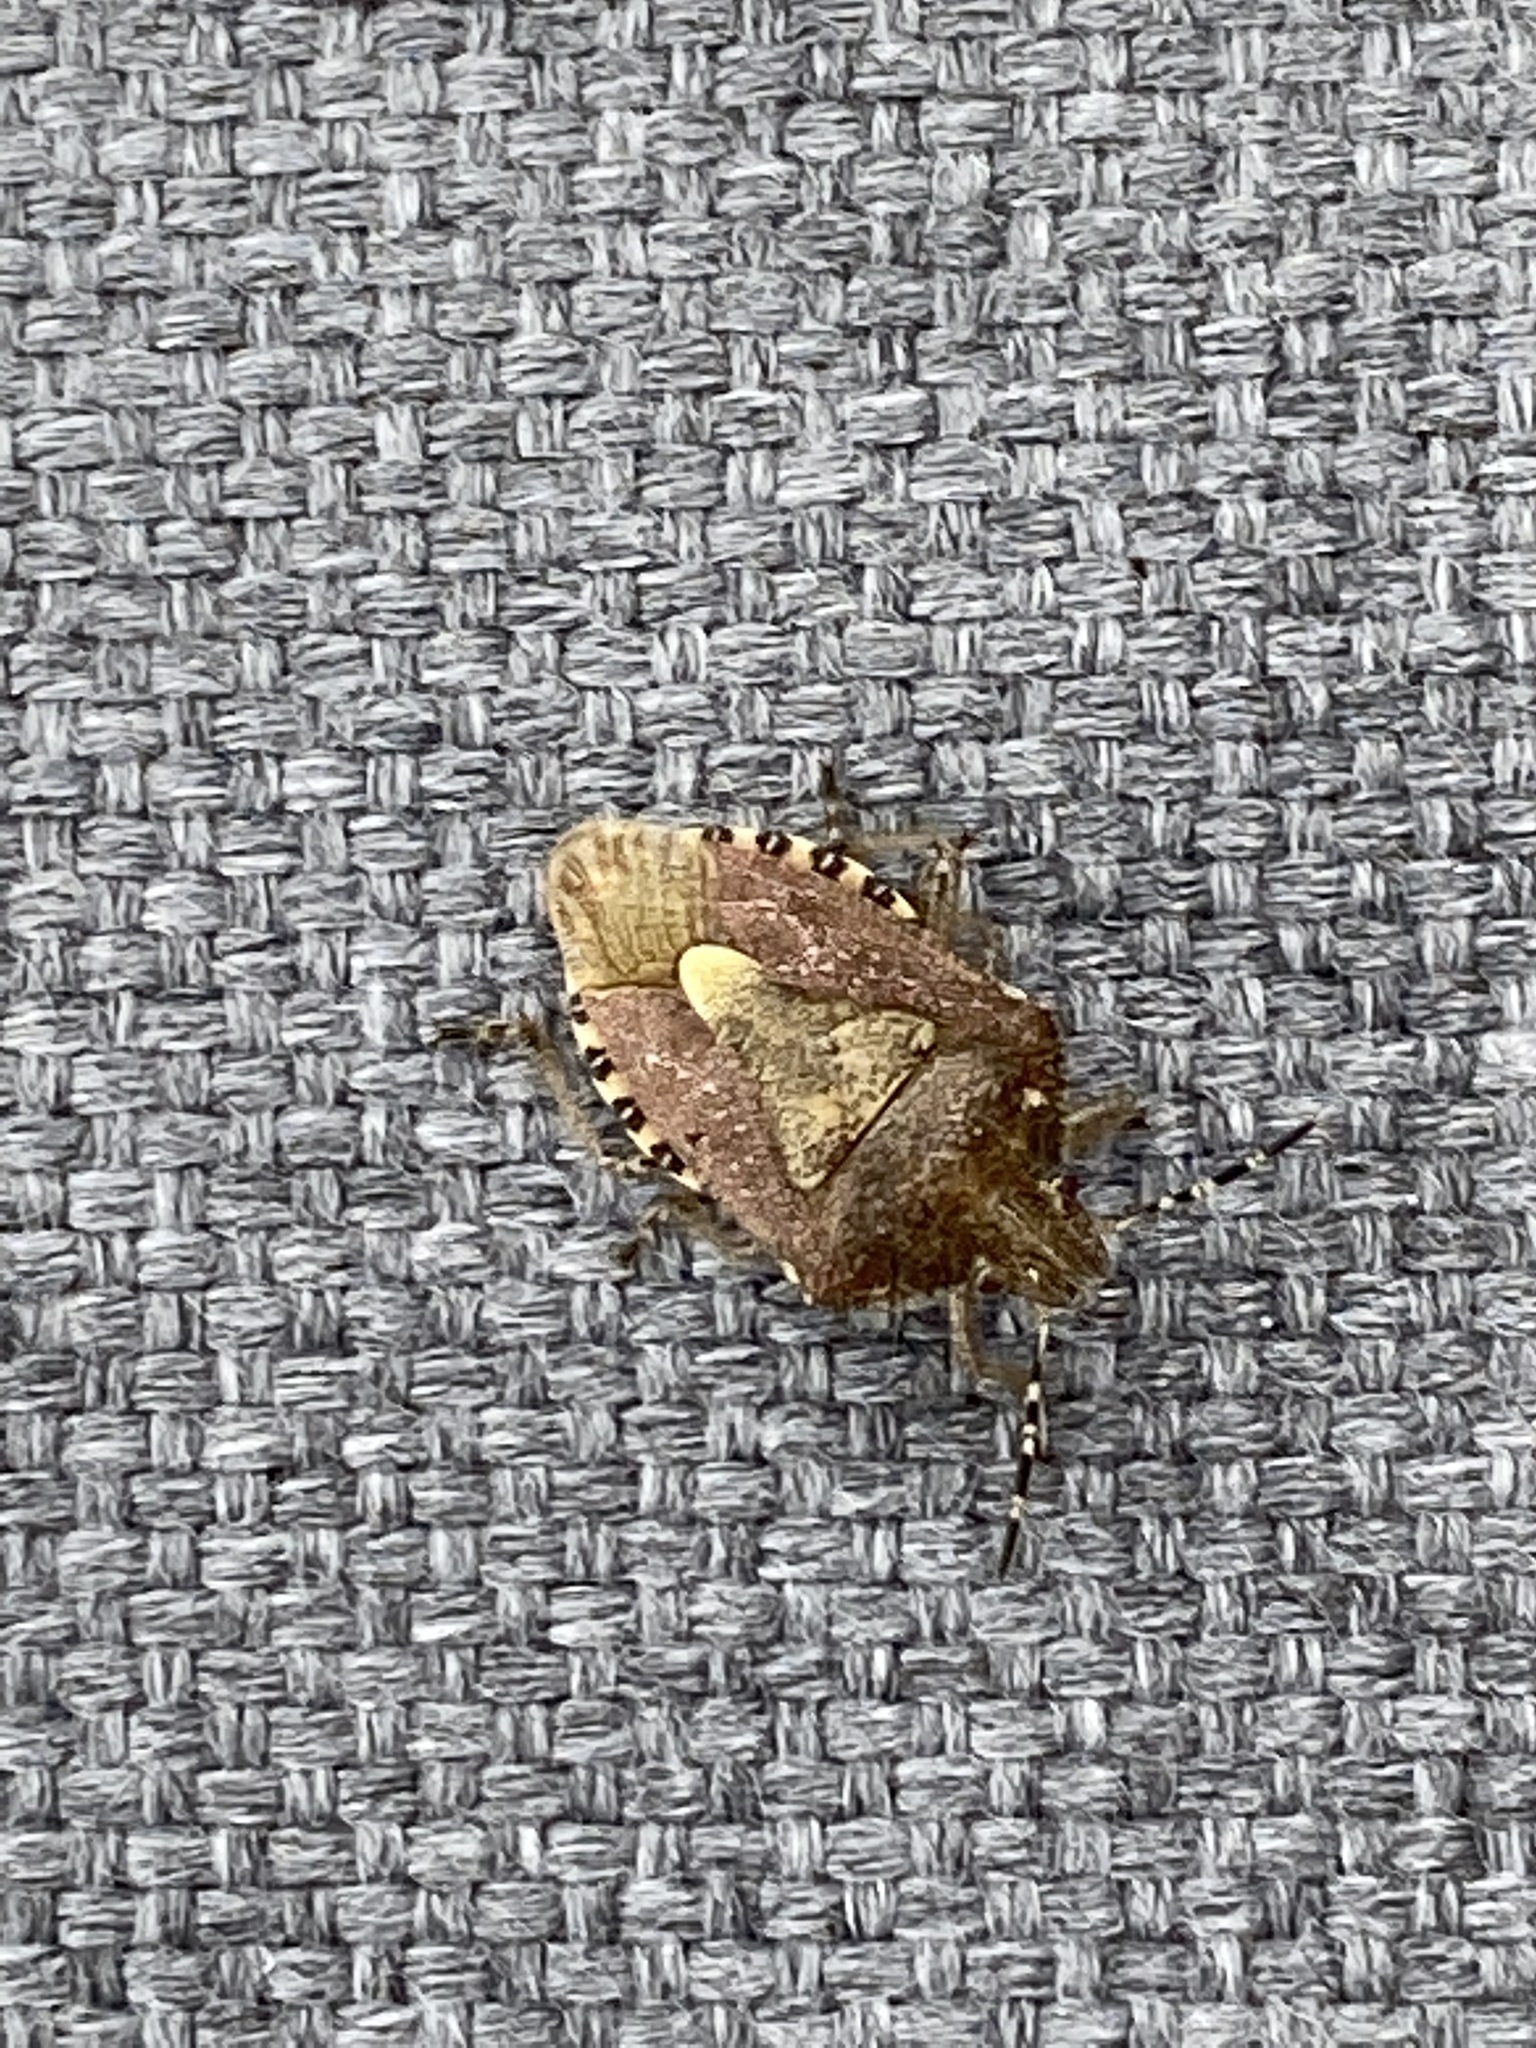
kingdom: Animalia
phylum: Arthropoda
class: Insecta
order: Hemiptera
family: Pentatomidae
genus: Dolycoris
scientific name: Dolycoris baccarum
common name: Sloe bug
